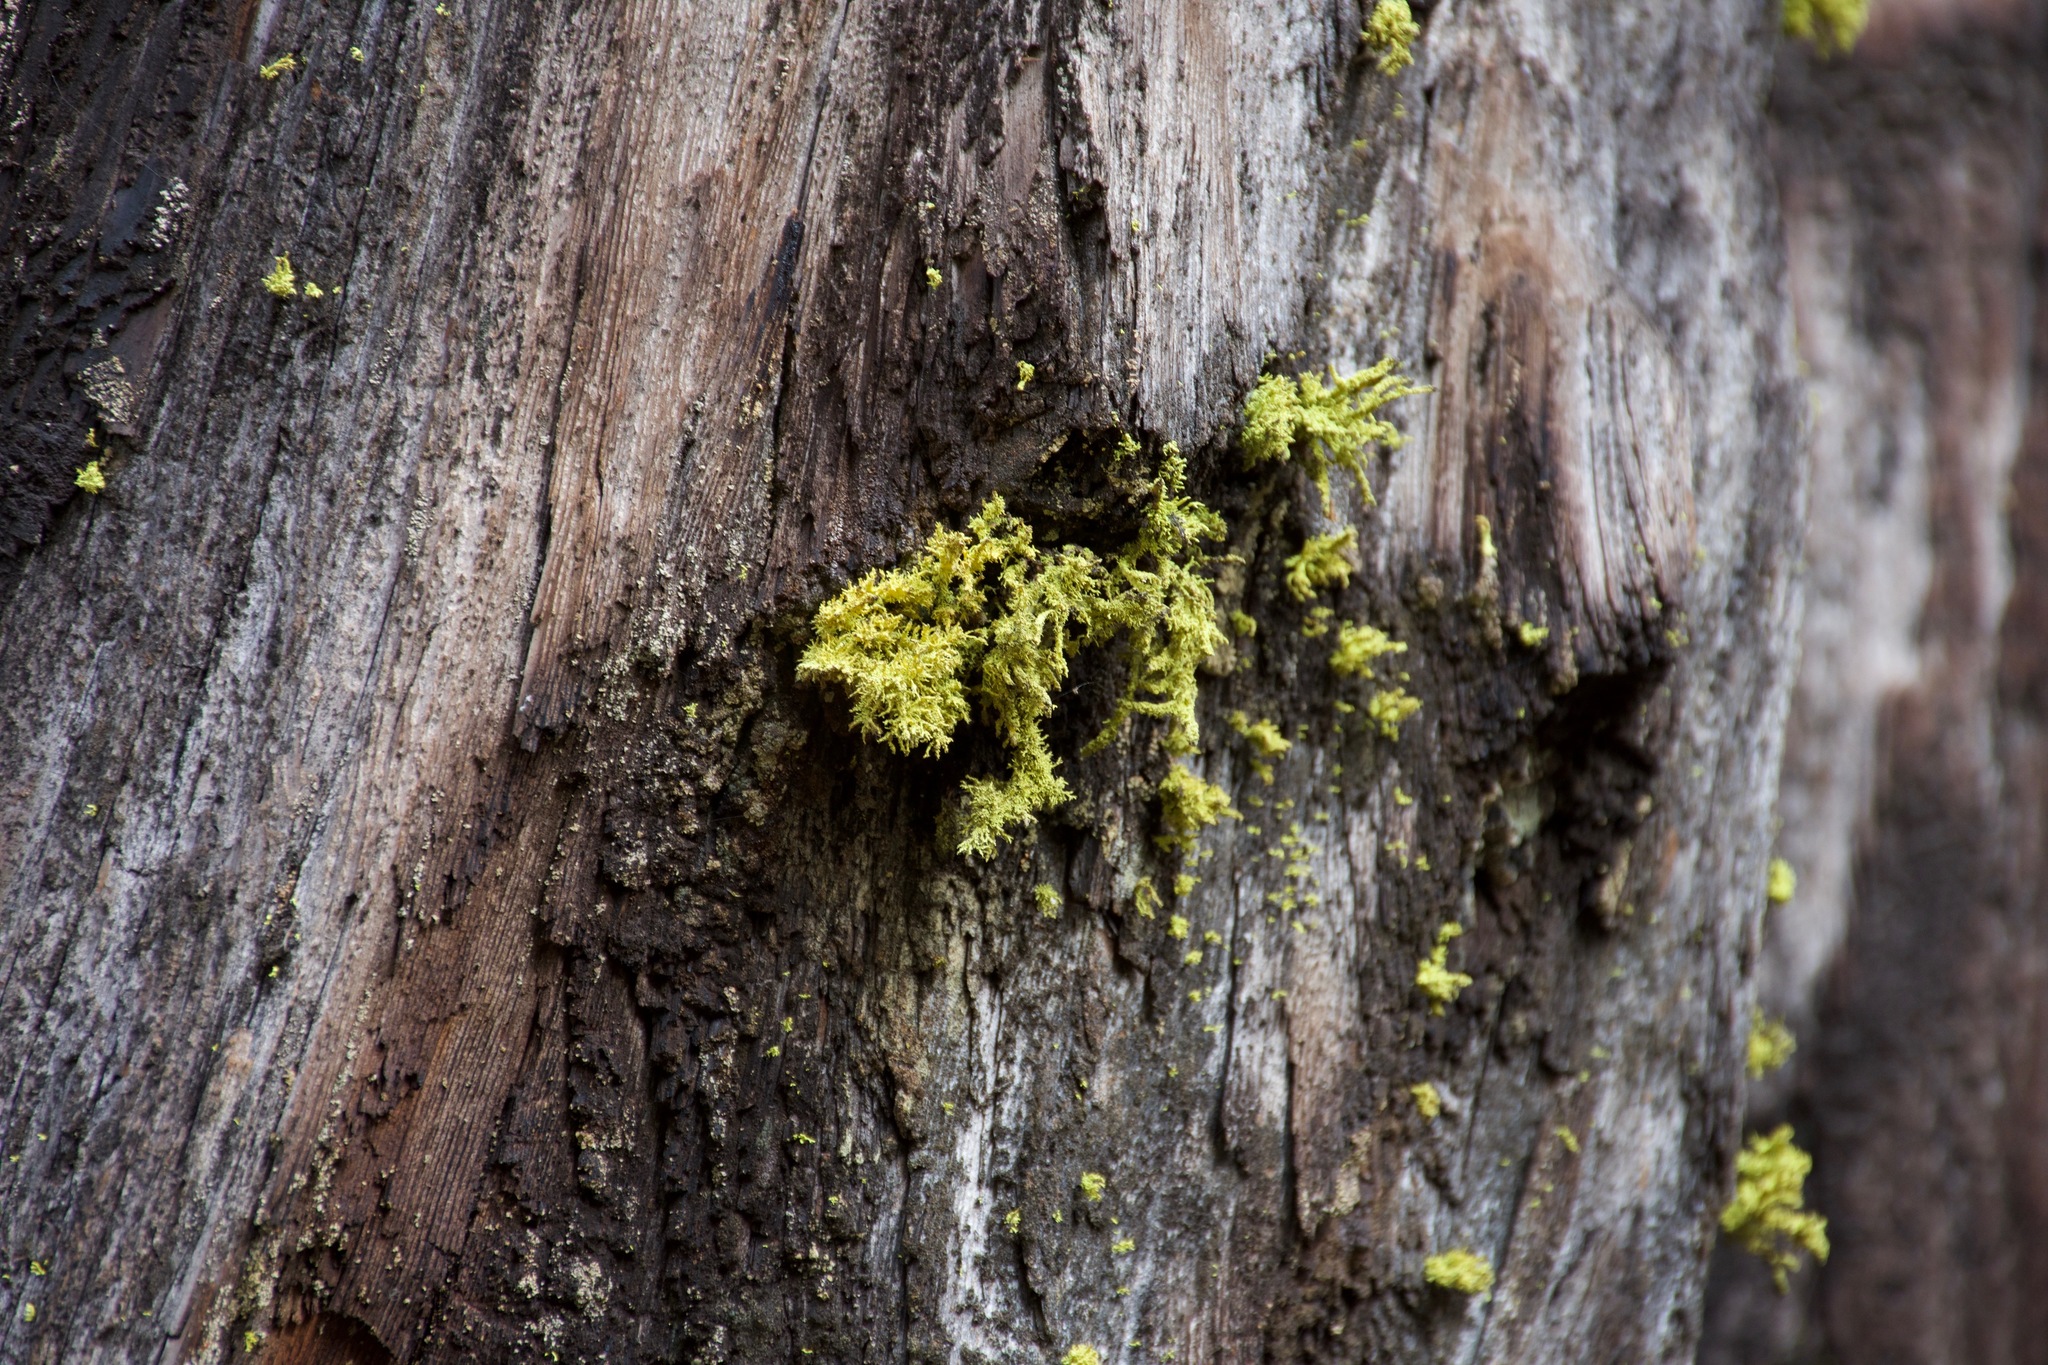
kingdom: Fungi
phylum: Ascomycota
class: Lecanoromycetes
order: Lecanorales
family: Parmeliaceae
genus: Letharia
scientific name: Letharia vulpina
